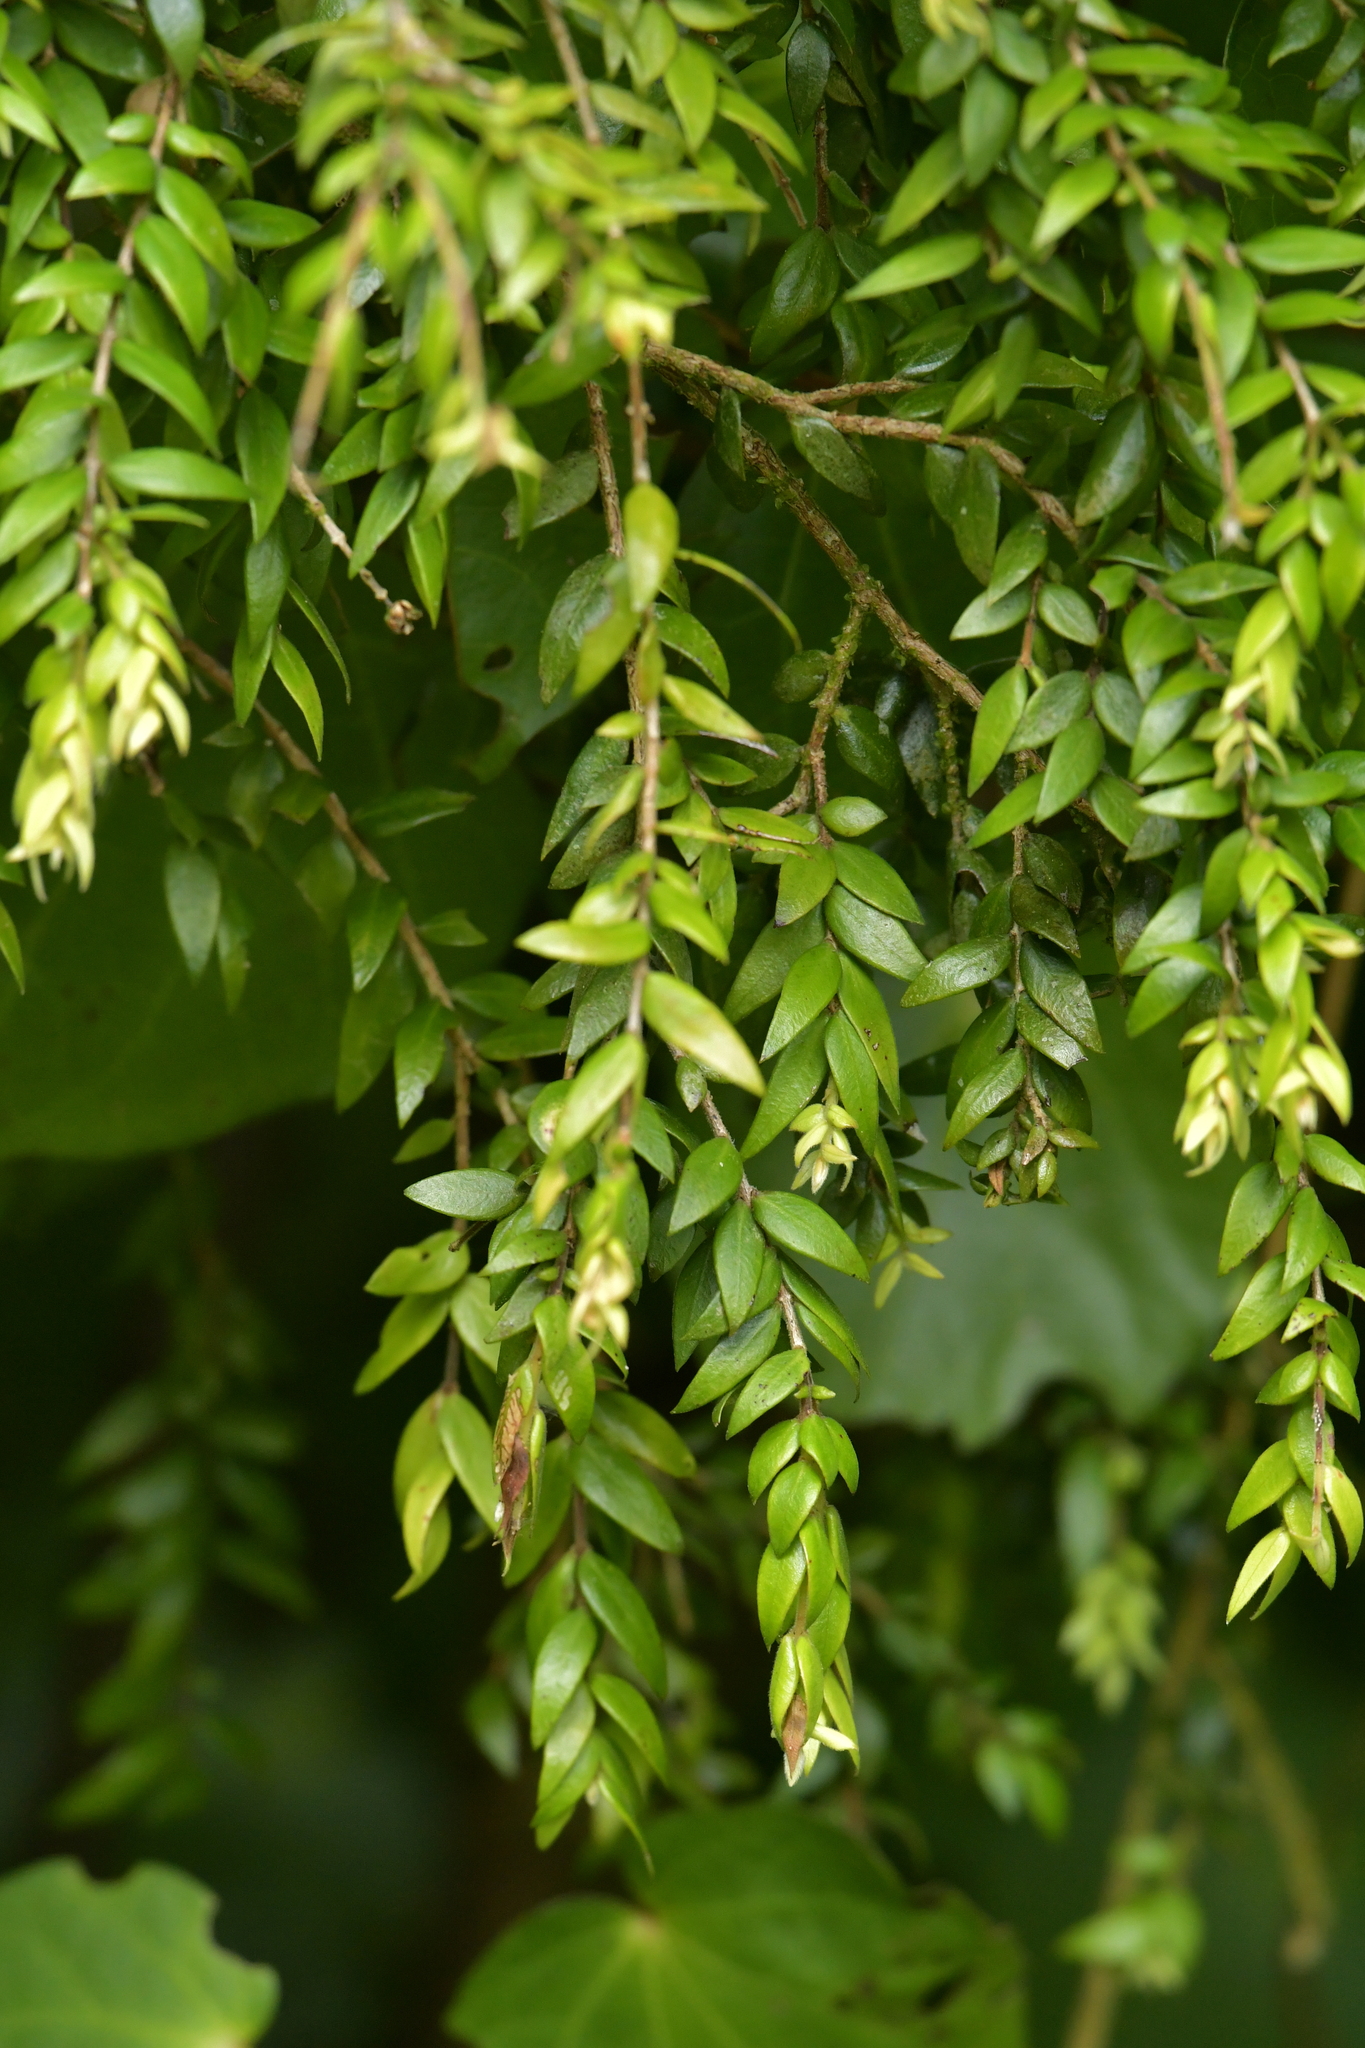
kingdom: Plantae
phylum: Tracheophyta
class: Magnoliopsida
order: Myrtales
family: Myrtaceae
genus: Metrosideros
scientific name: Metrosideros colensoi
